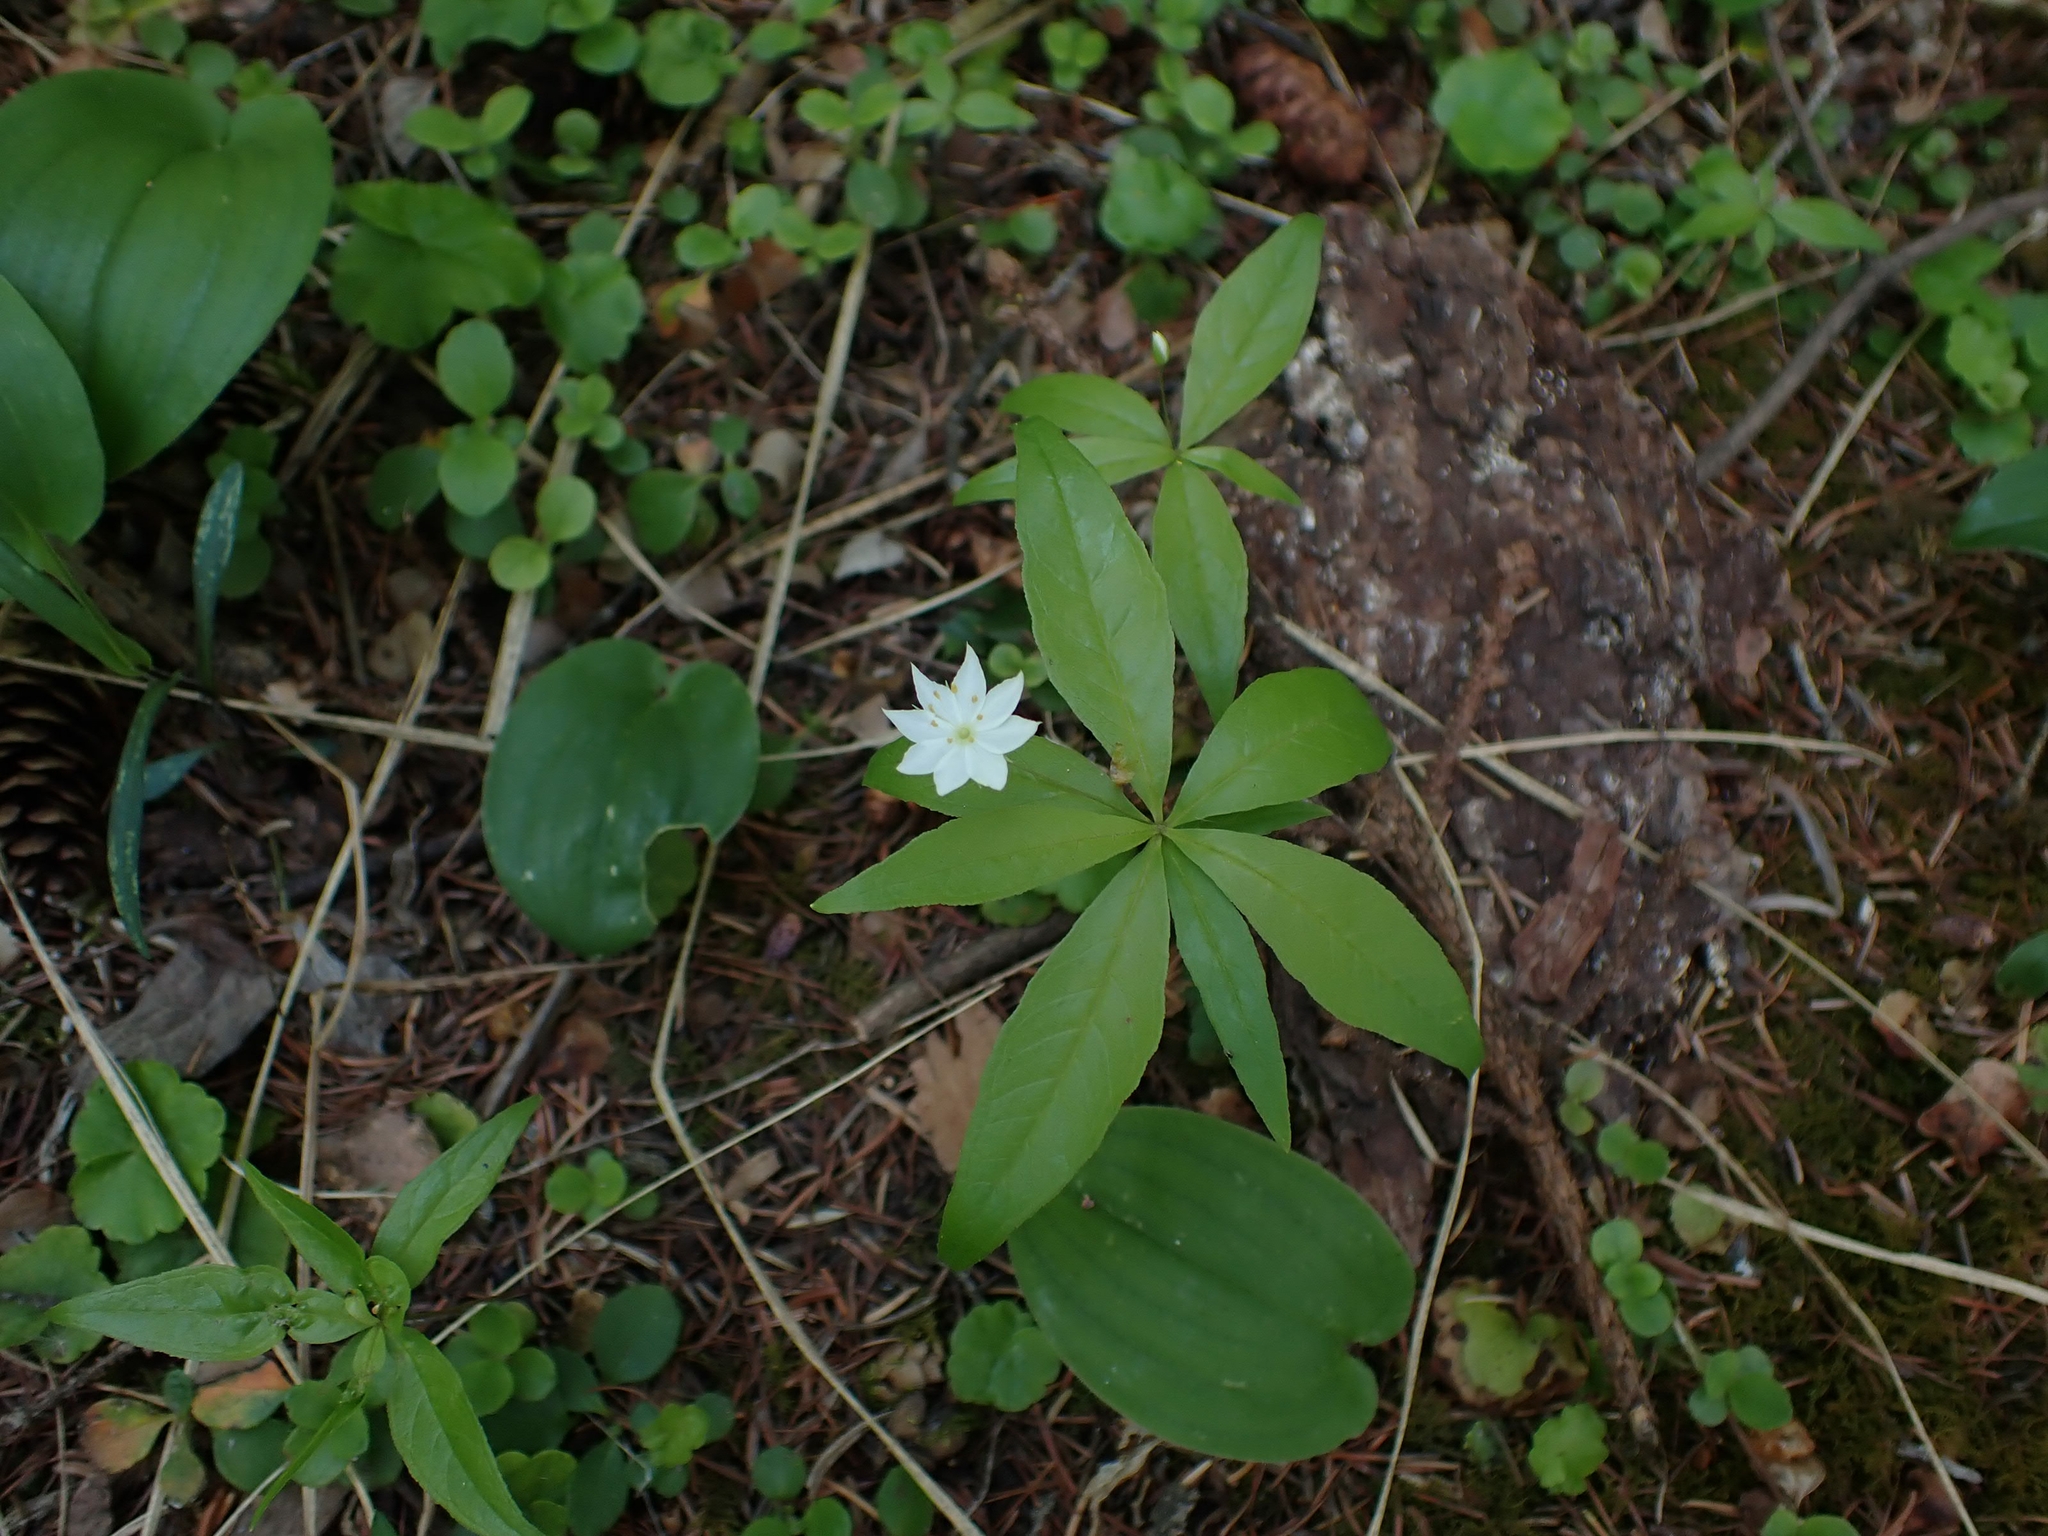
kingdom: Plantae
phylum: Tracheophyta
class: Magnoliopsida
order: Ericales
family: Primulaceae
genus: Lysimachia
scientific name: Lysimachia borealis
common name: American starflower
